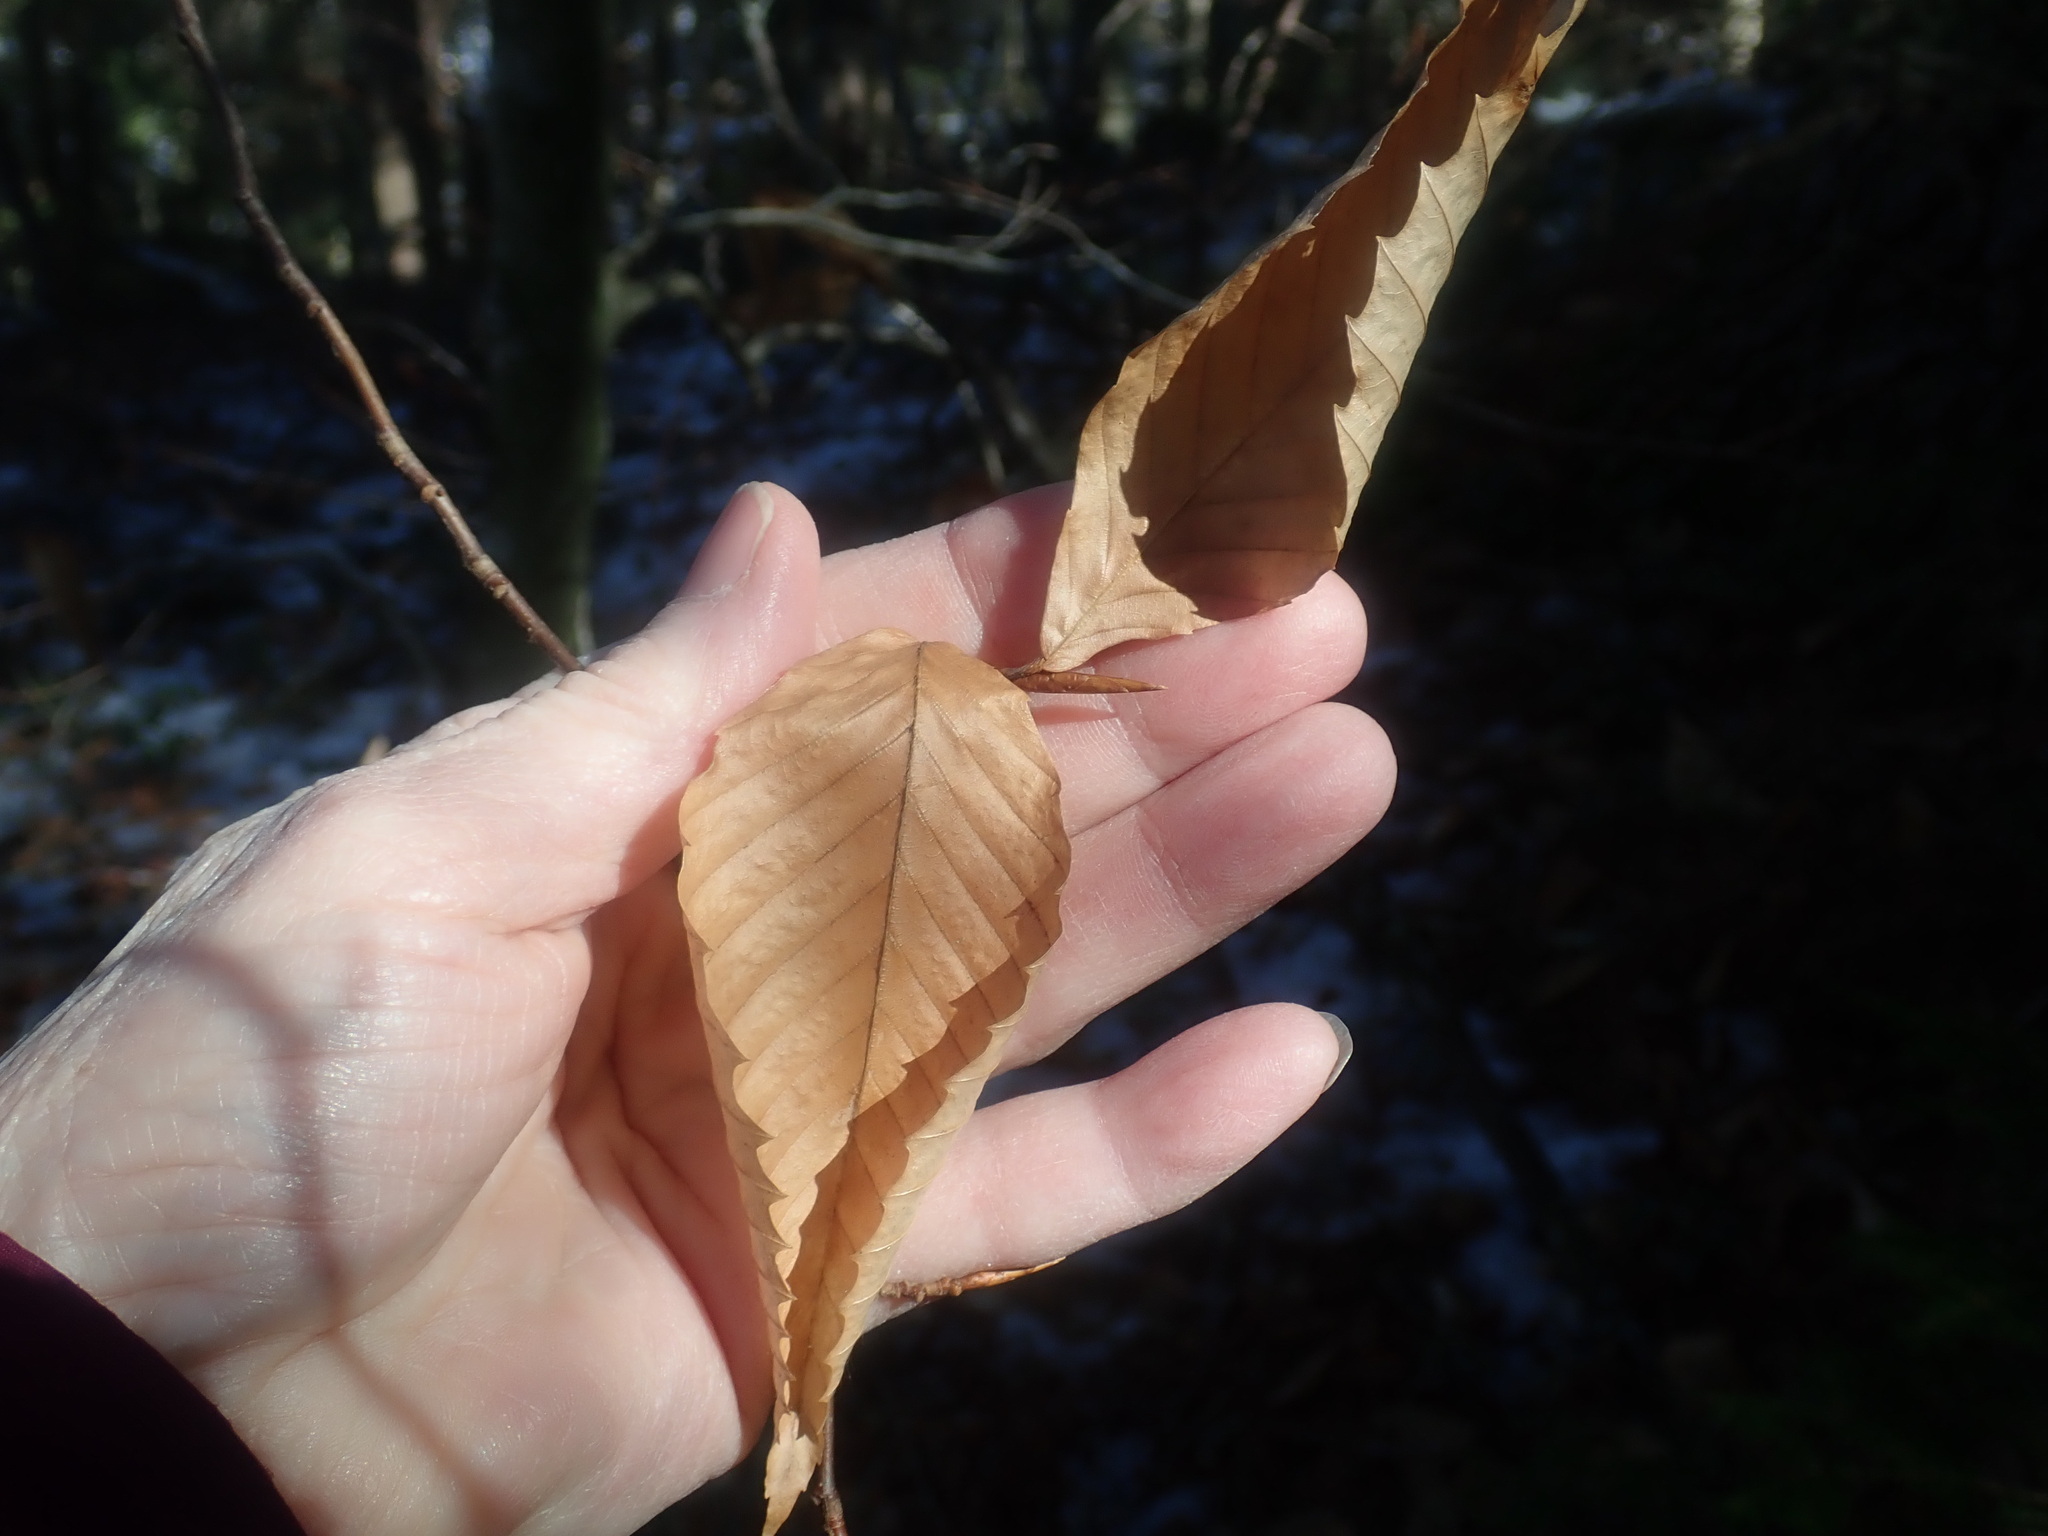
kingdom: Plantae
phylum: Tracheophyta
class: Magnoliopsida
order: Fagales
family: Fagaceae
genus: Fagus
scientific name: Fagus grandifolia
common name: American beech
